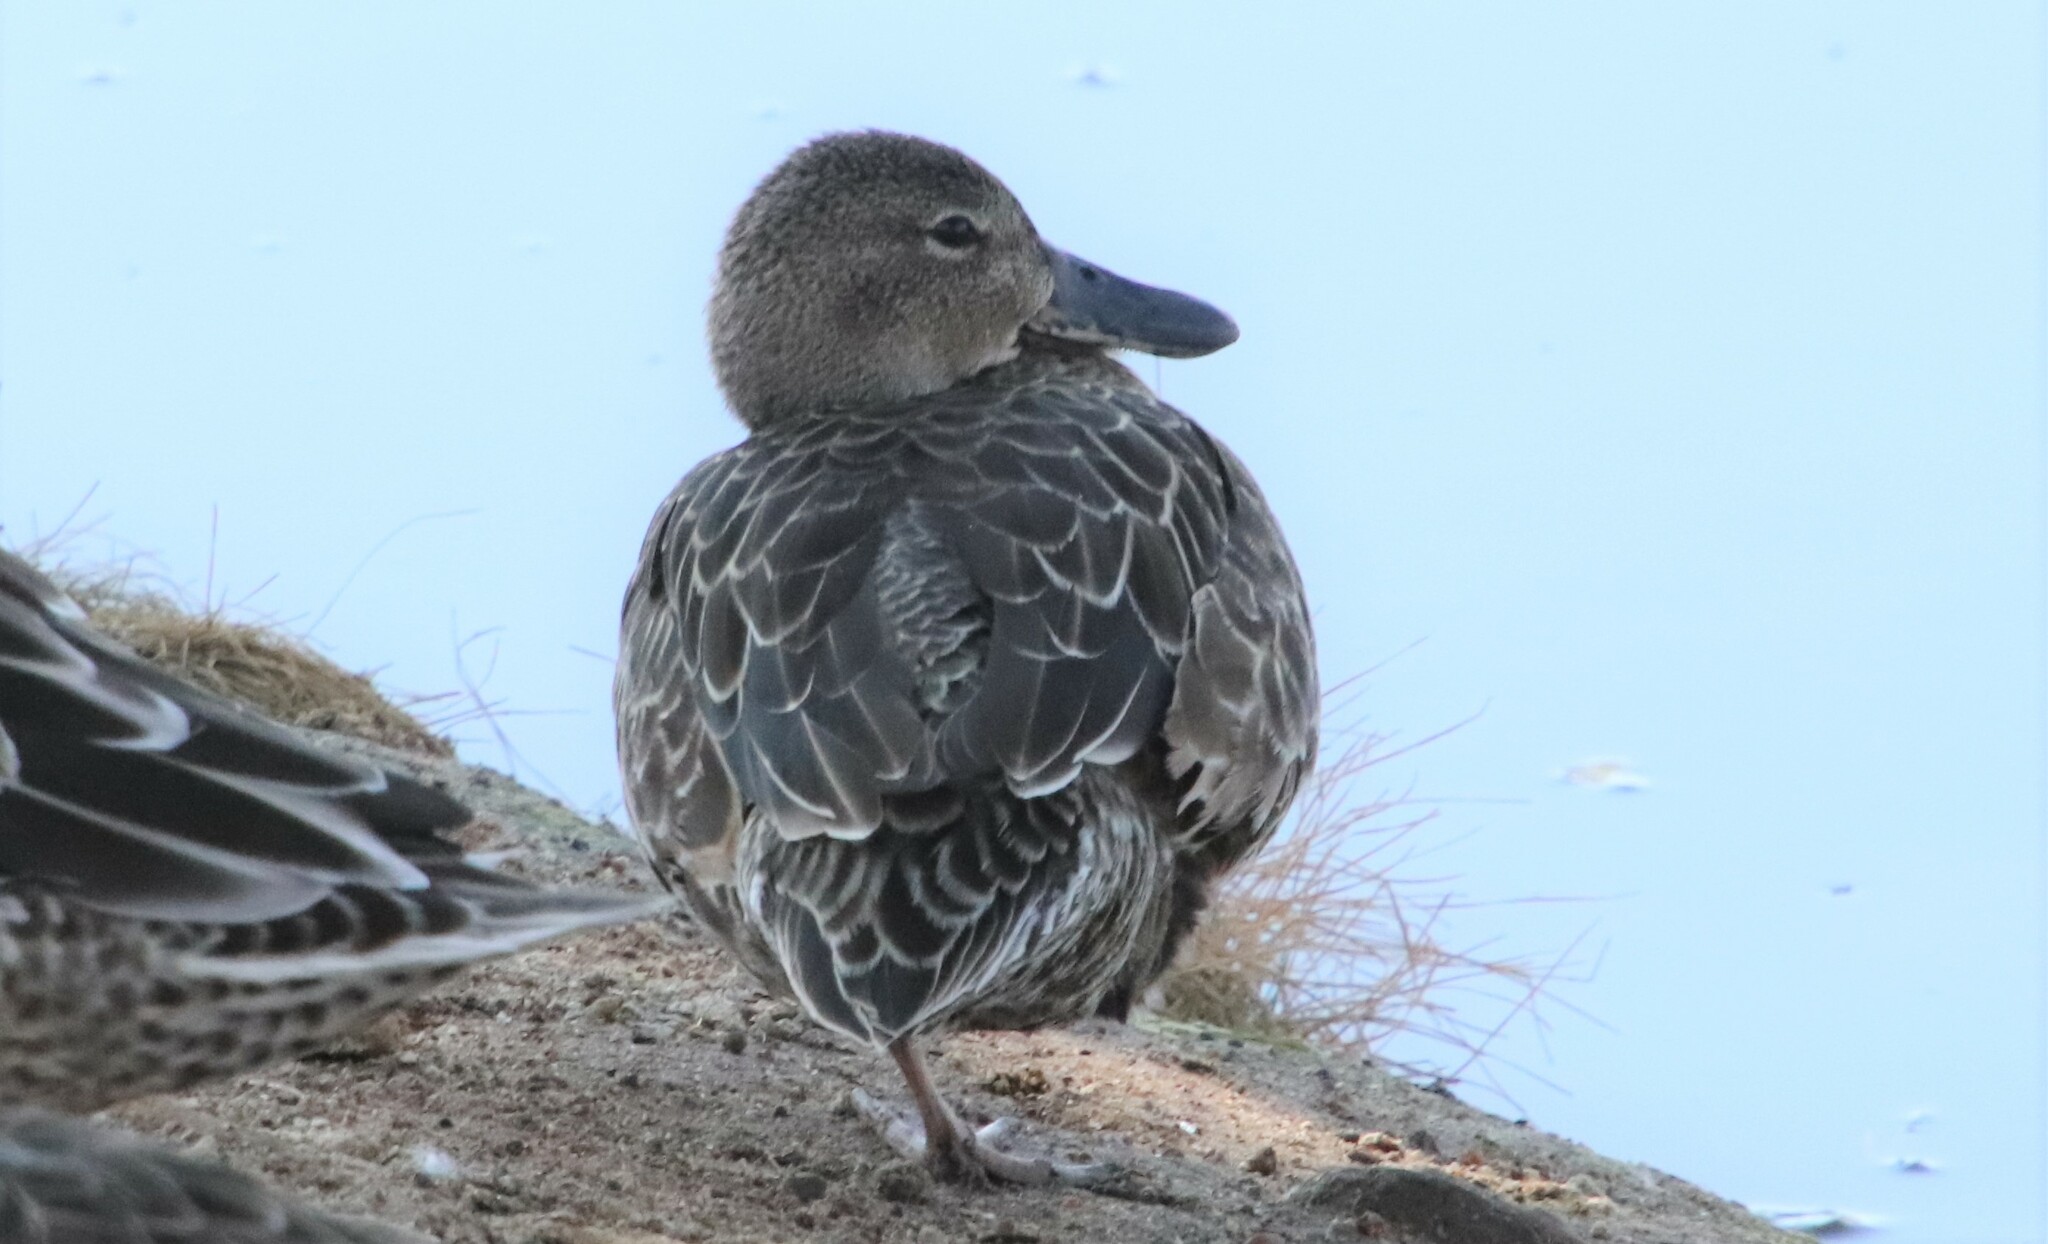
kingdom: Animalia
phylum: Chordata
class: Aves
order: Anseriformes
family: Anatidae
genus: Spatula
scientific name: Spatula cyanoptera
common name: Cinnamon teal
